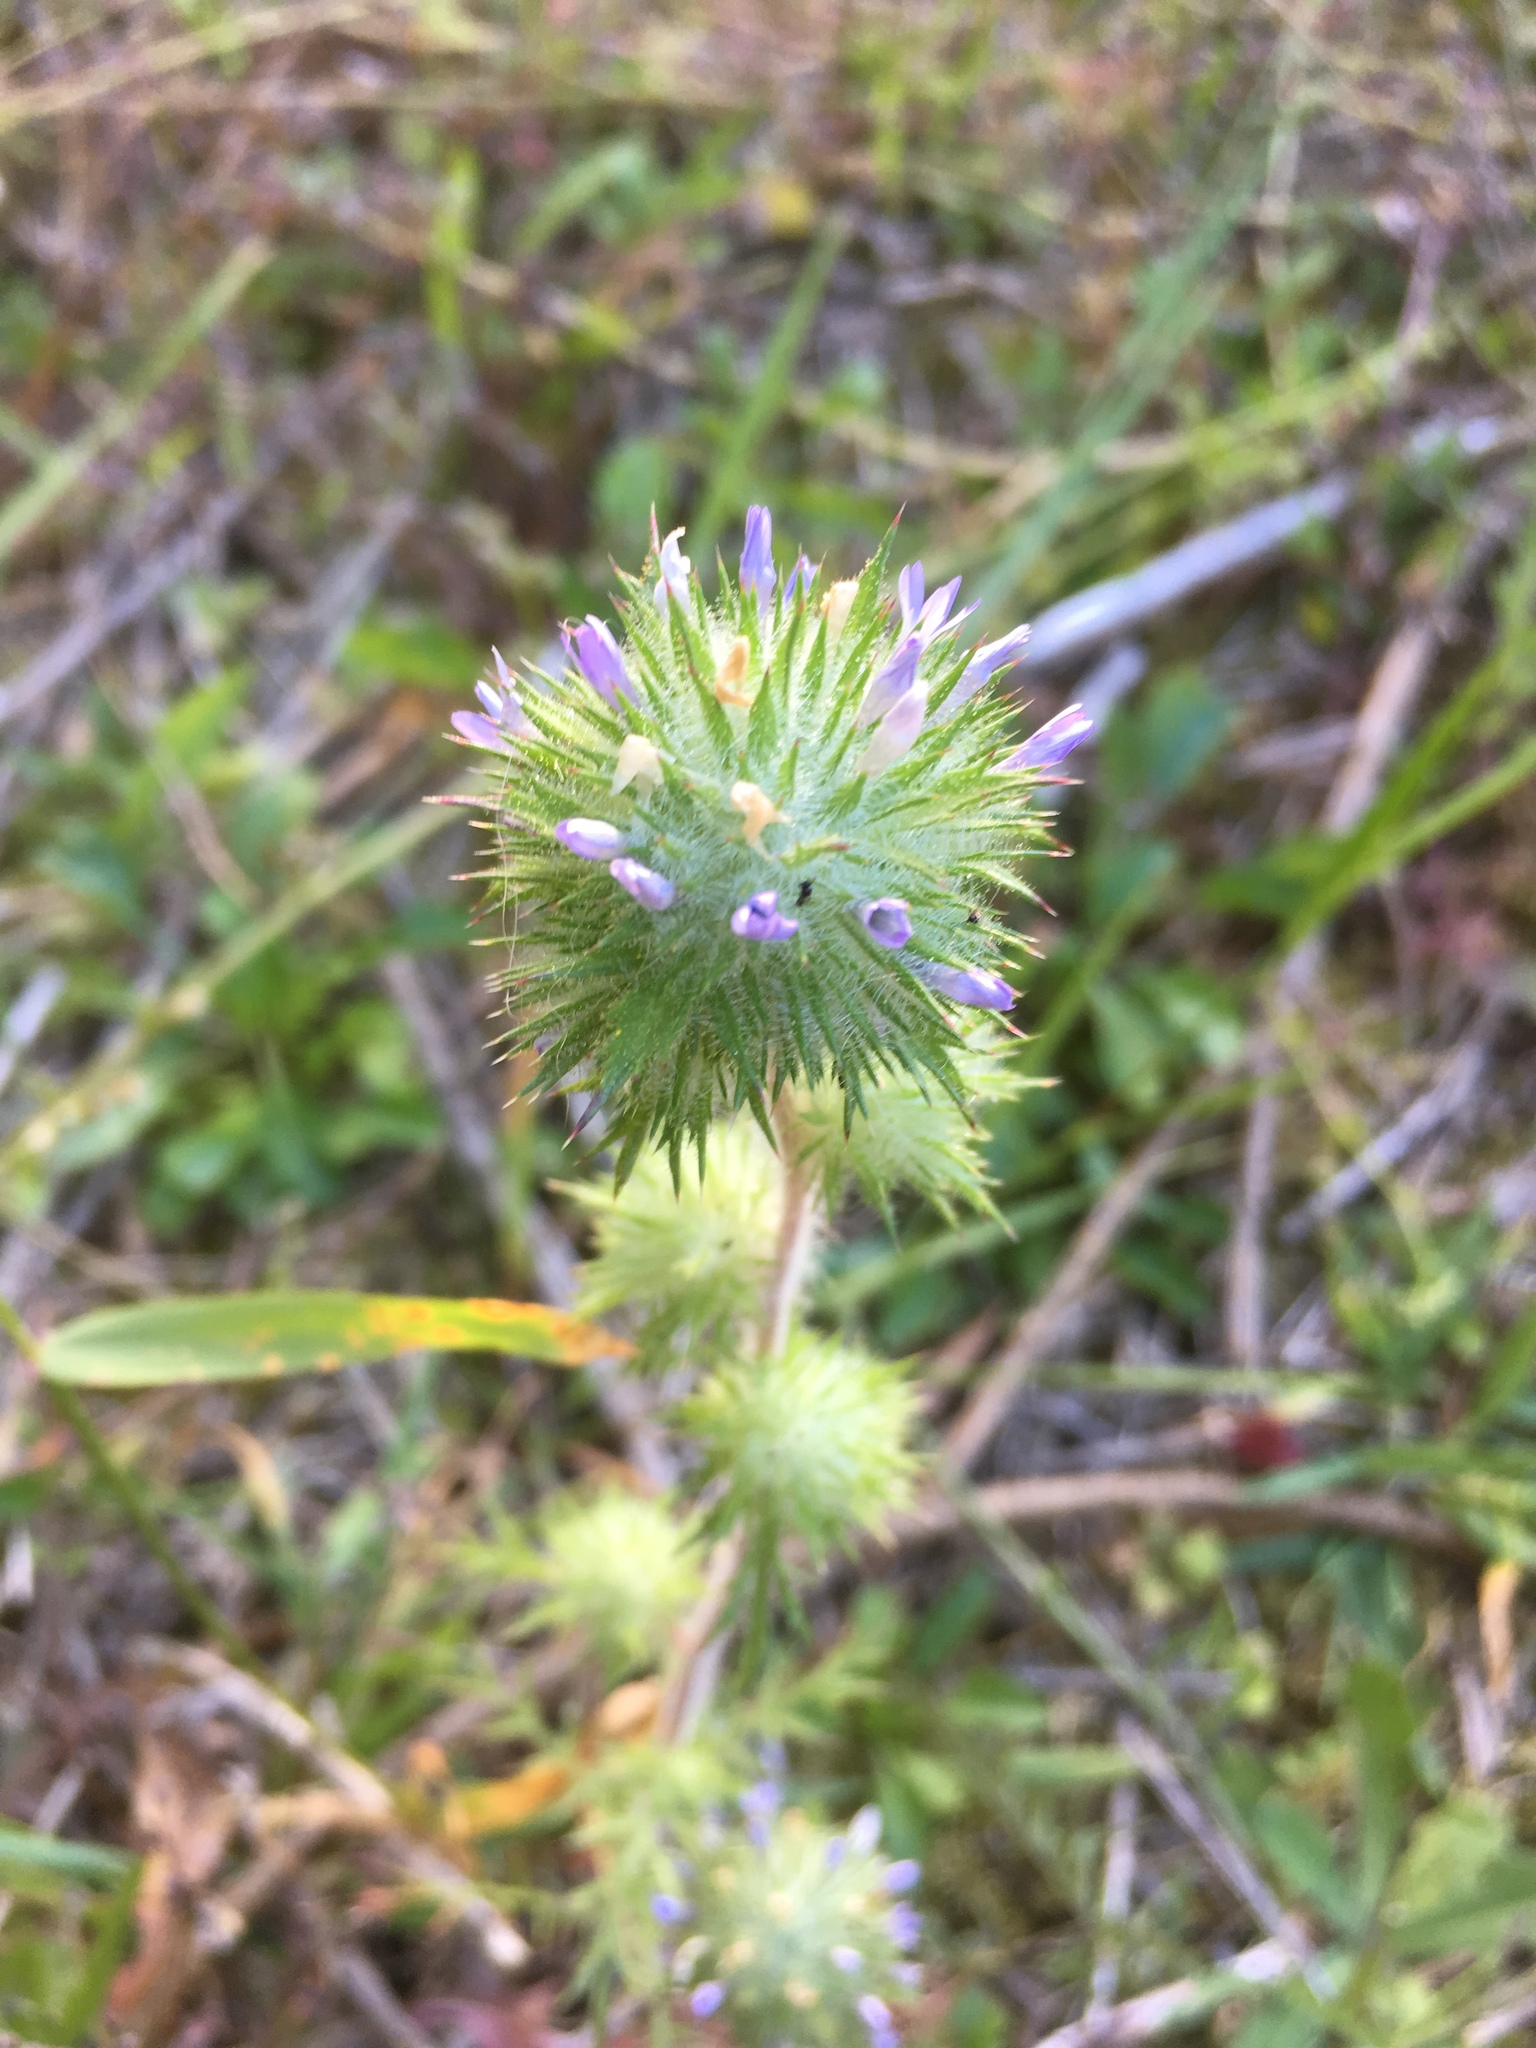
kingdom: Plantae
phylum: Tracheophyta
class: Magnoliopsida
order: Ericales
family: Polemoniaceae
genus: Navarretia
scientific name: Navarretia squarrosa
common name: Skunkweed
